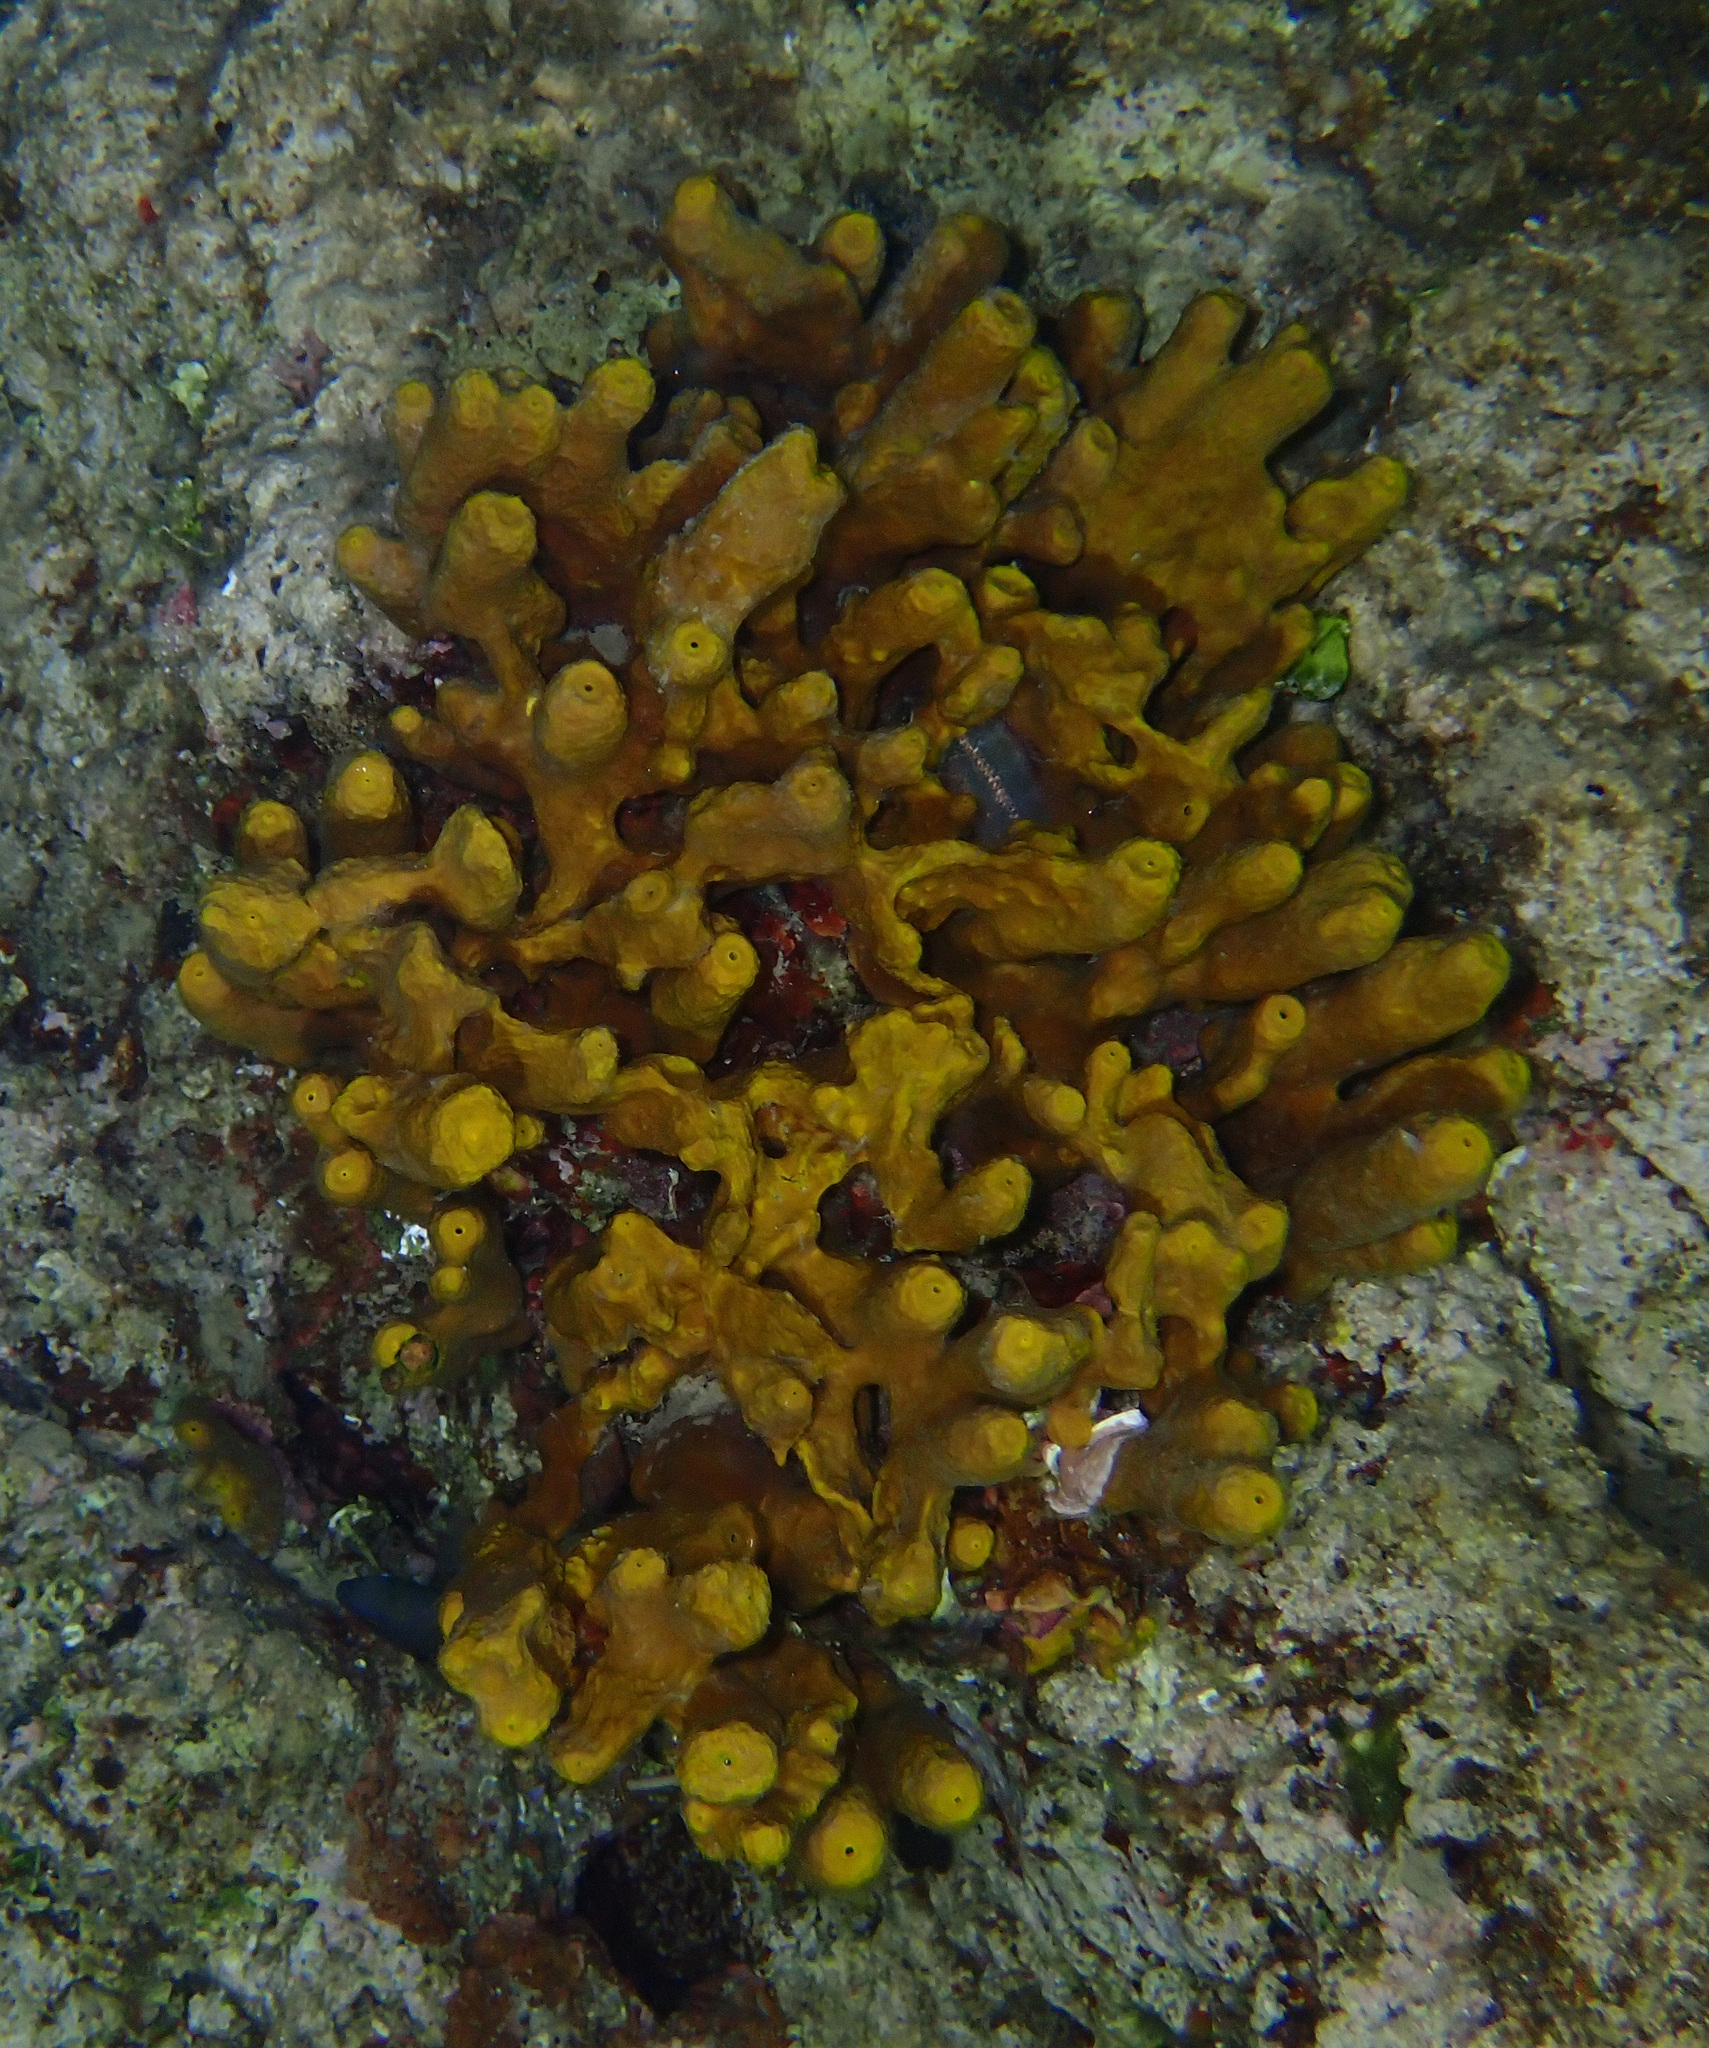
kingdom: Animalia
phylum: Porifera
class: Demospongiae
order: Verongiida
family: Aplysinidae
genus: Aplysina
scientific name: Aplysina aerophoba
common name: Aureate sponge
